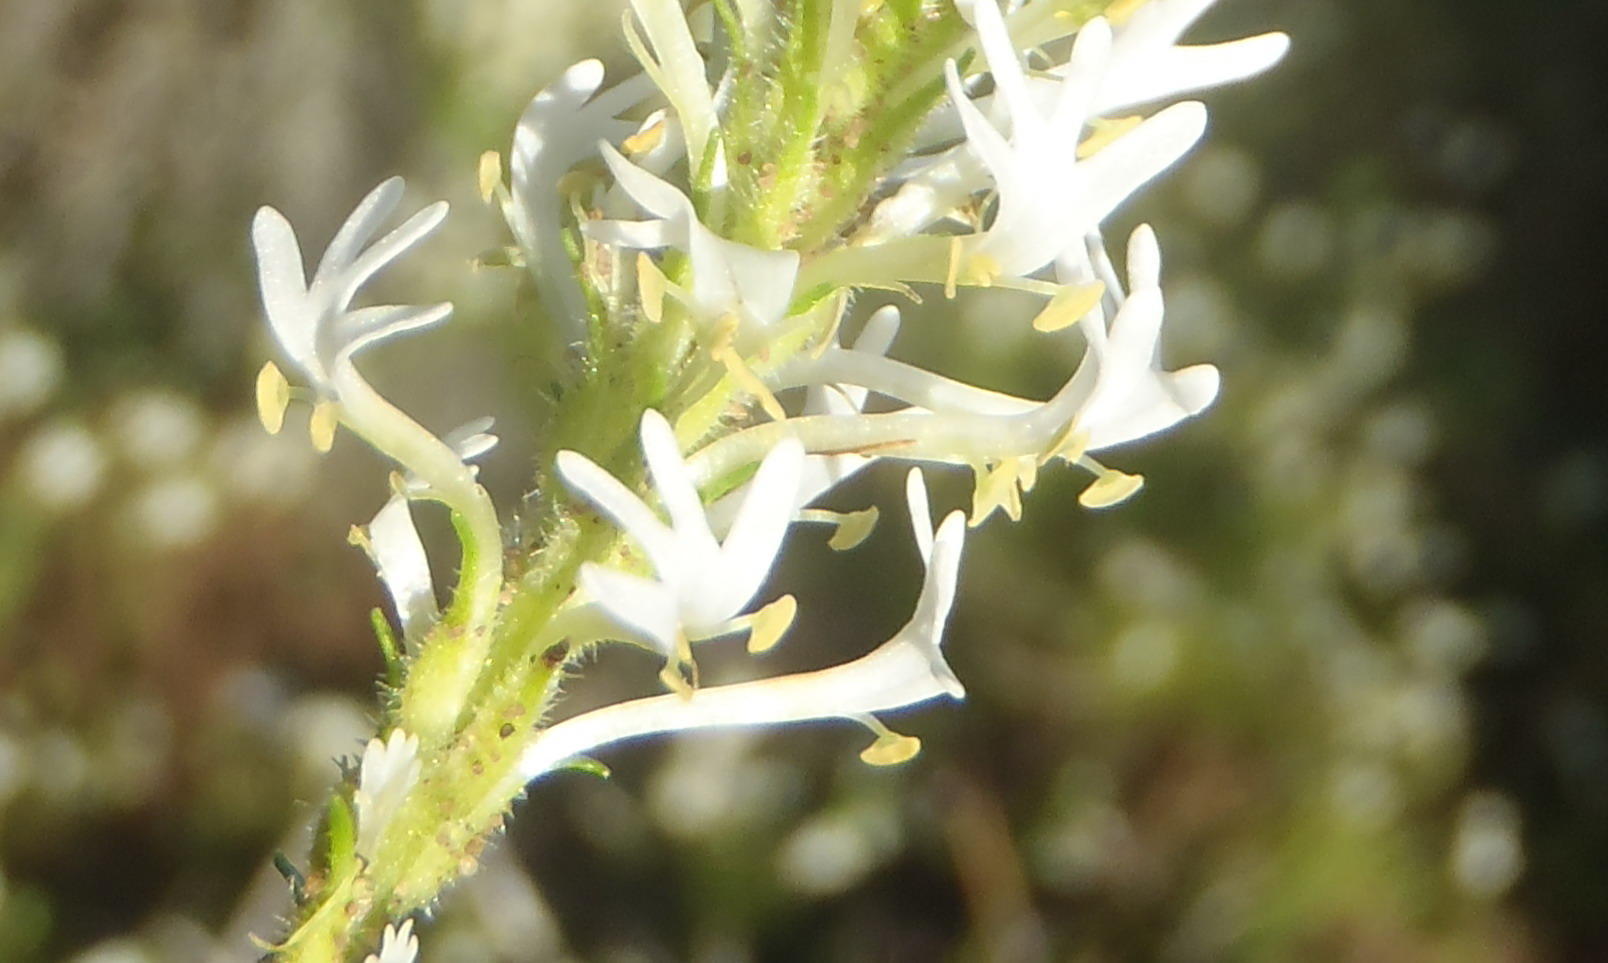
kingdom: Plantae
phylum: Tracheophyta
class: Magnoliopsida
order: Lamiales
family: Scrophulariaceae
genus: Dischisma
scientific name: Dischisma ciliatum
